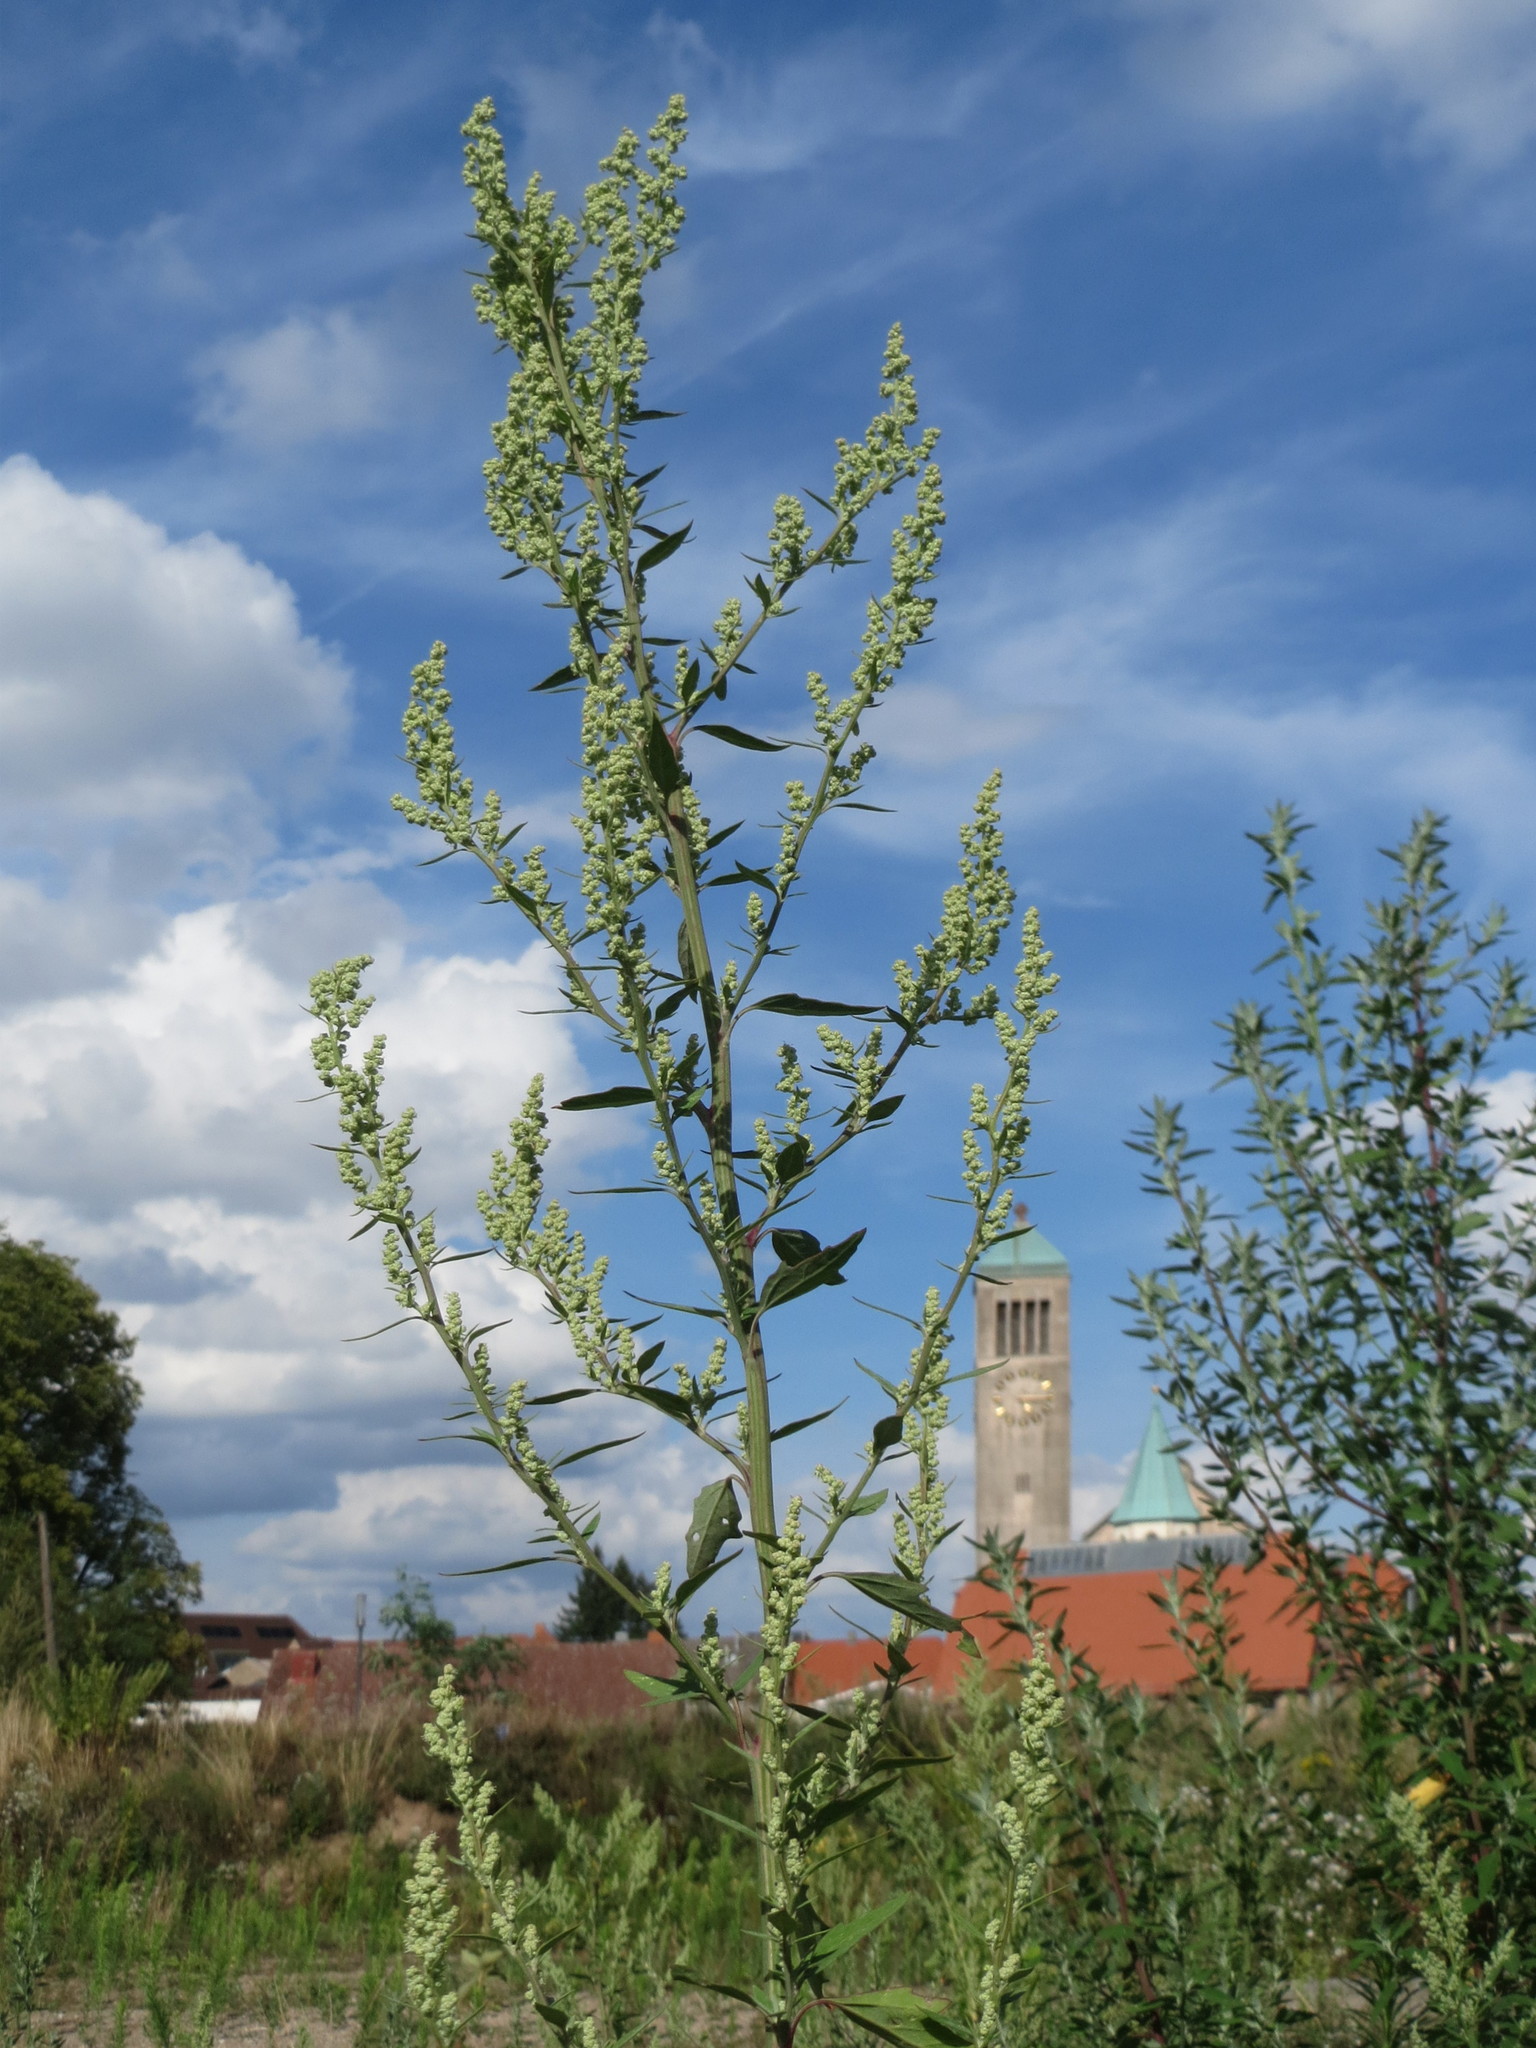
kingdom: Plantae
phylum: Tracheophyta
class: Magnoliopsida
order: Caryophyllales
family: Amaranthaceae
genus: Chenopodium
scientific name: Chenopodium album
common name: Fat-hen
